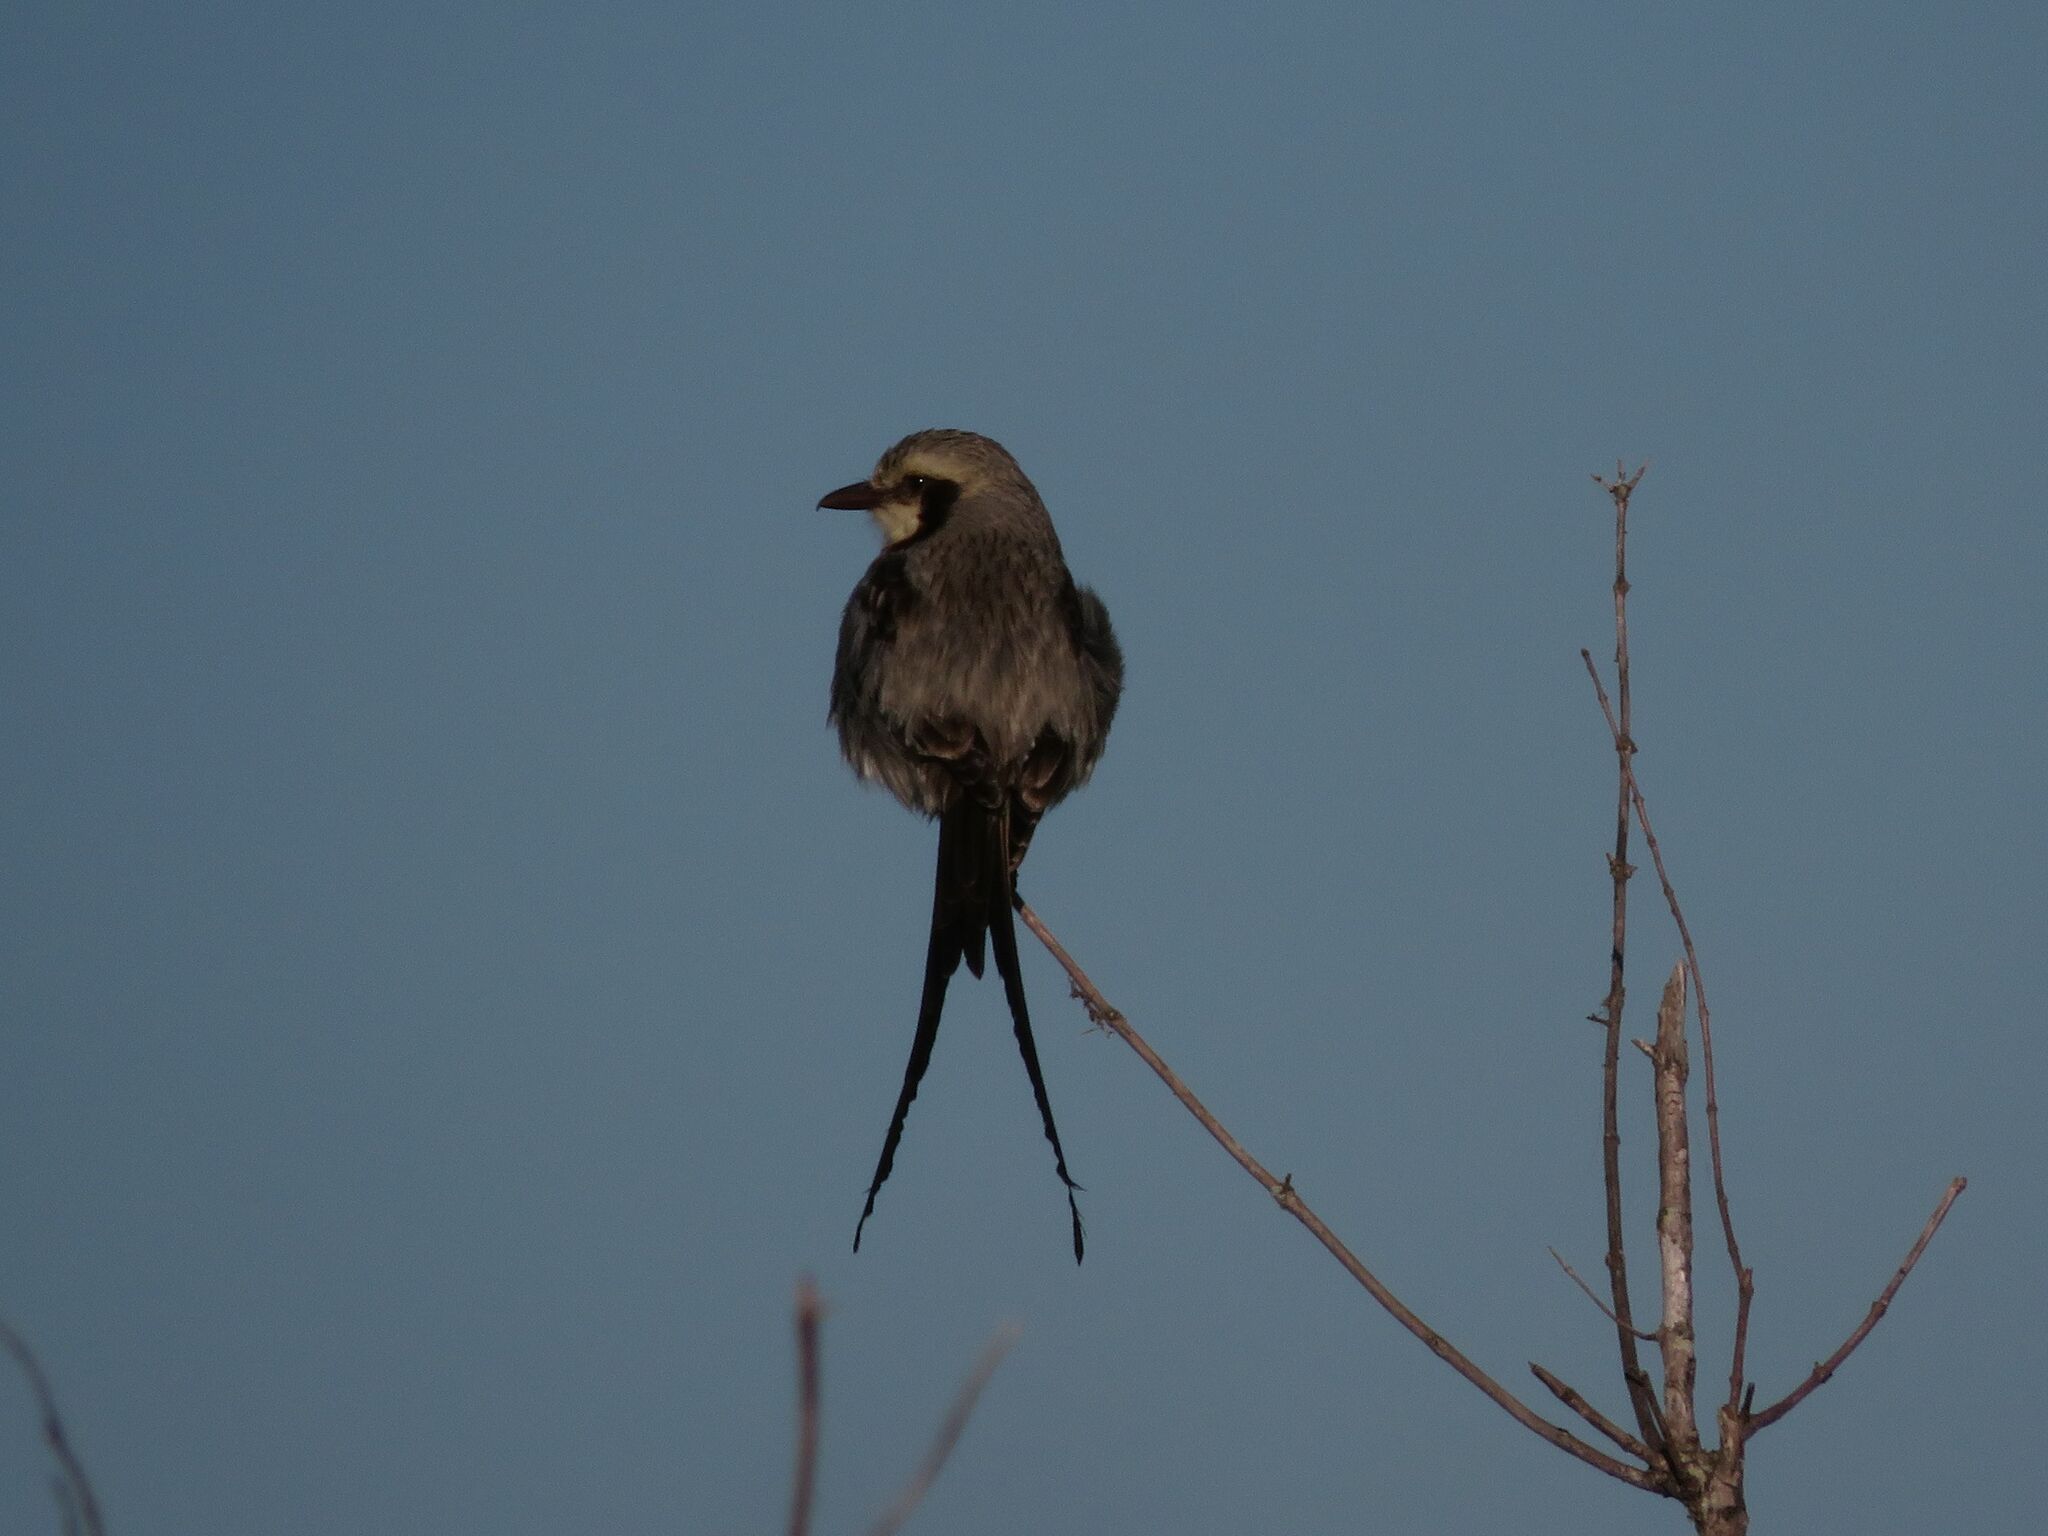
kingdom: Animalia
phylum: Chordata
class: Aves
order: Passeriformes
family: Tyrannidae
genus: Gubernetes
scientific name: Gubernetes yetapa
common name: Streamer-tailed tyrant
